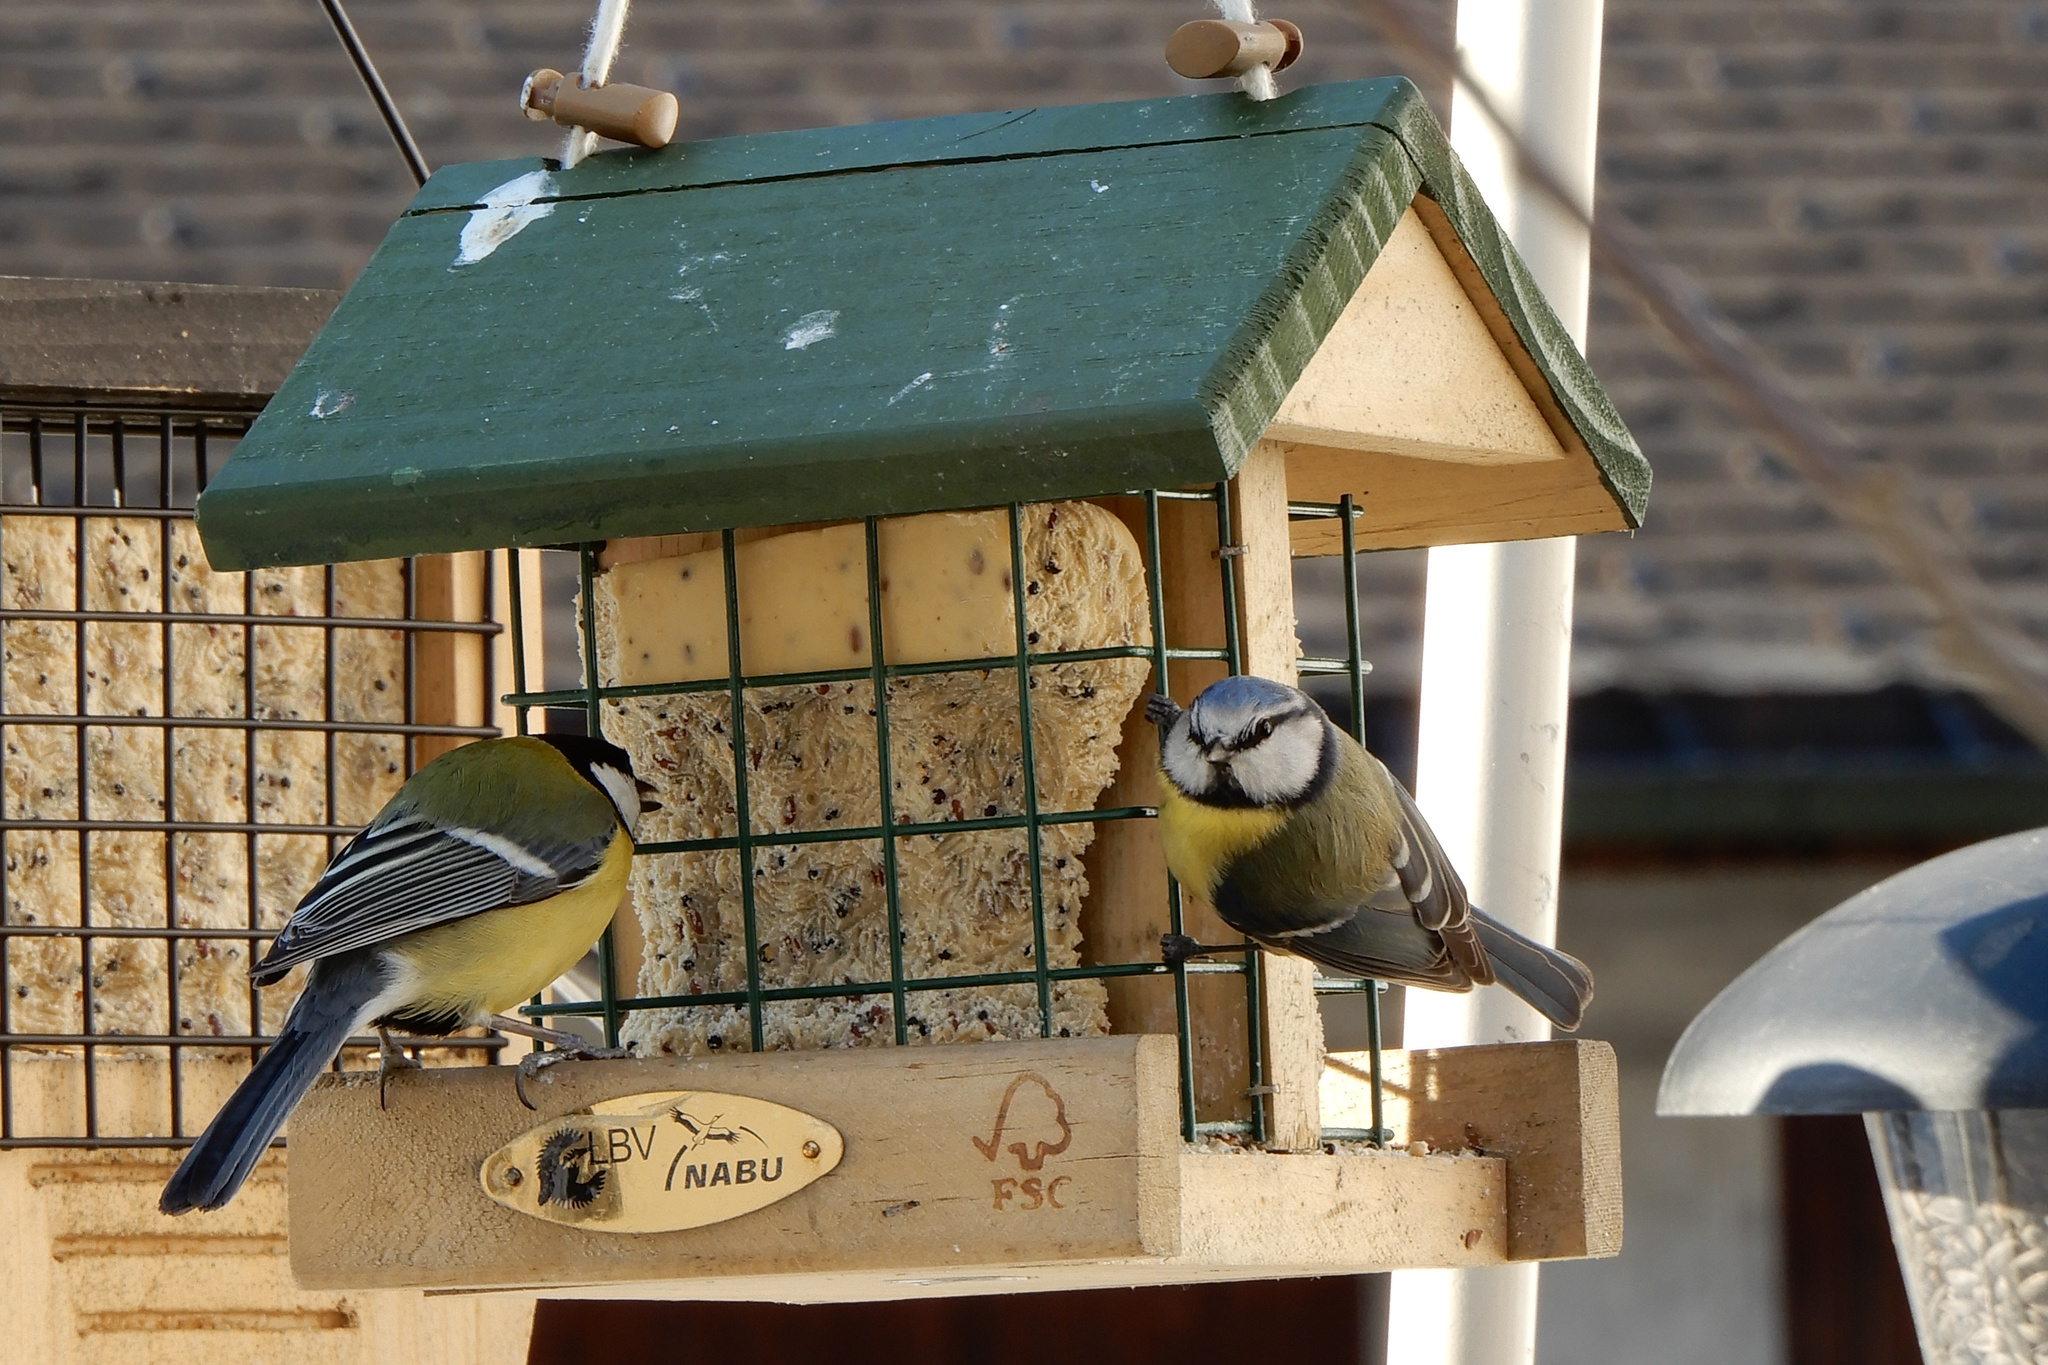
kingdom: Animalia
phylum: Chordata
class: Aves
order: Passeriformes
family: Paridae
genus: Parus
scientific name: Parus major
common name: Great tit
